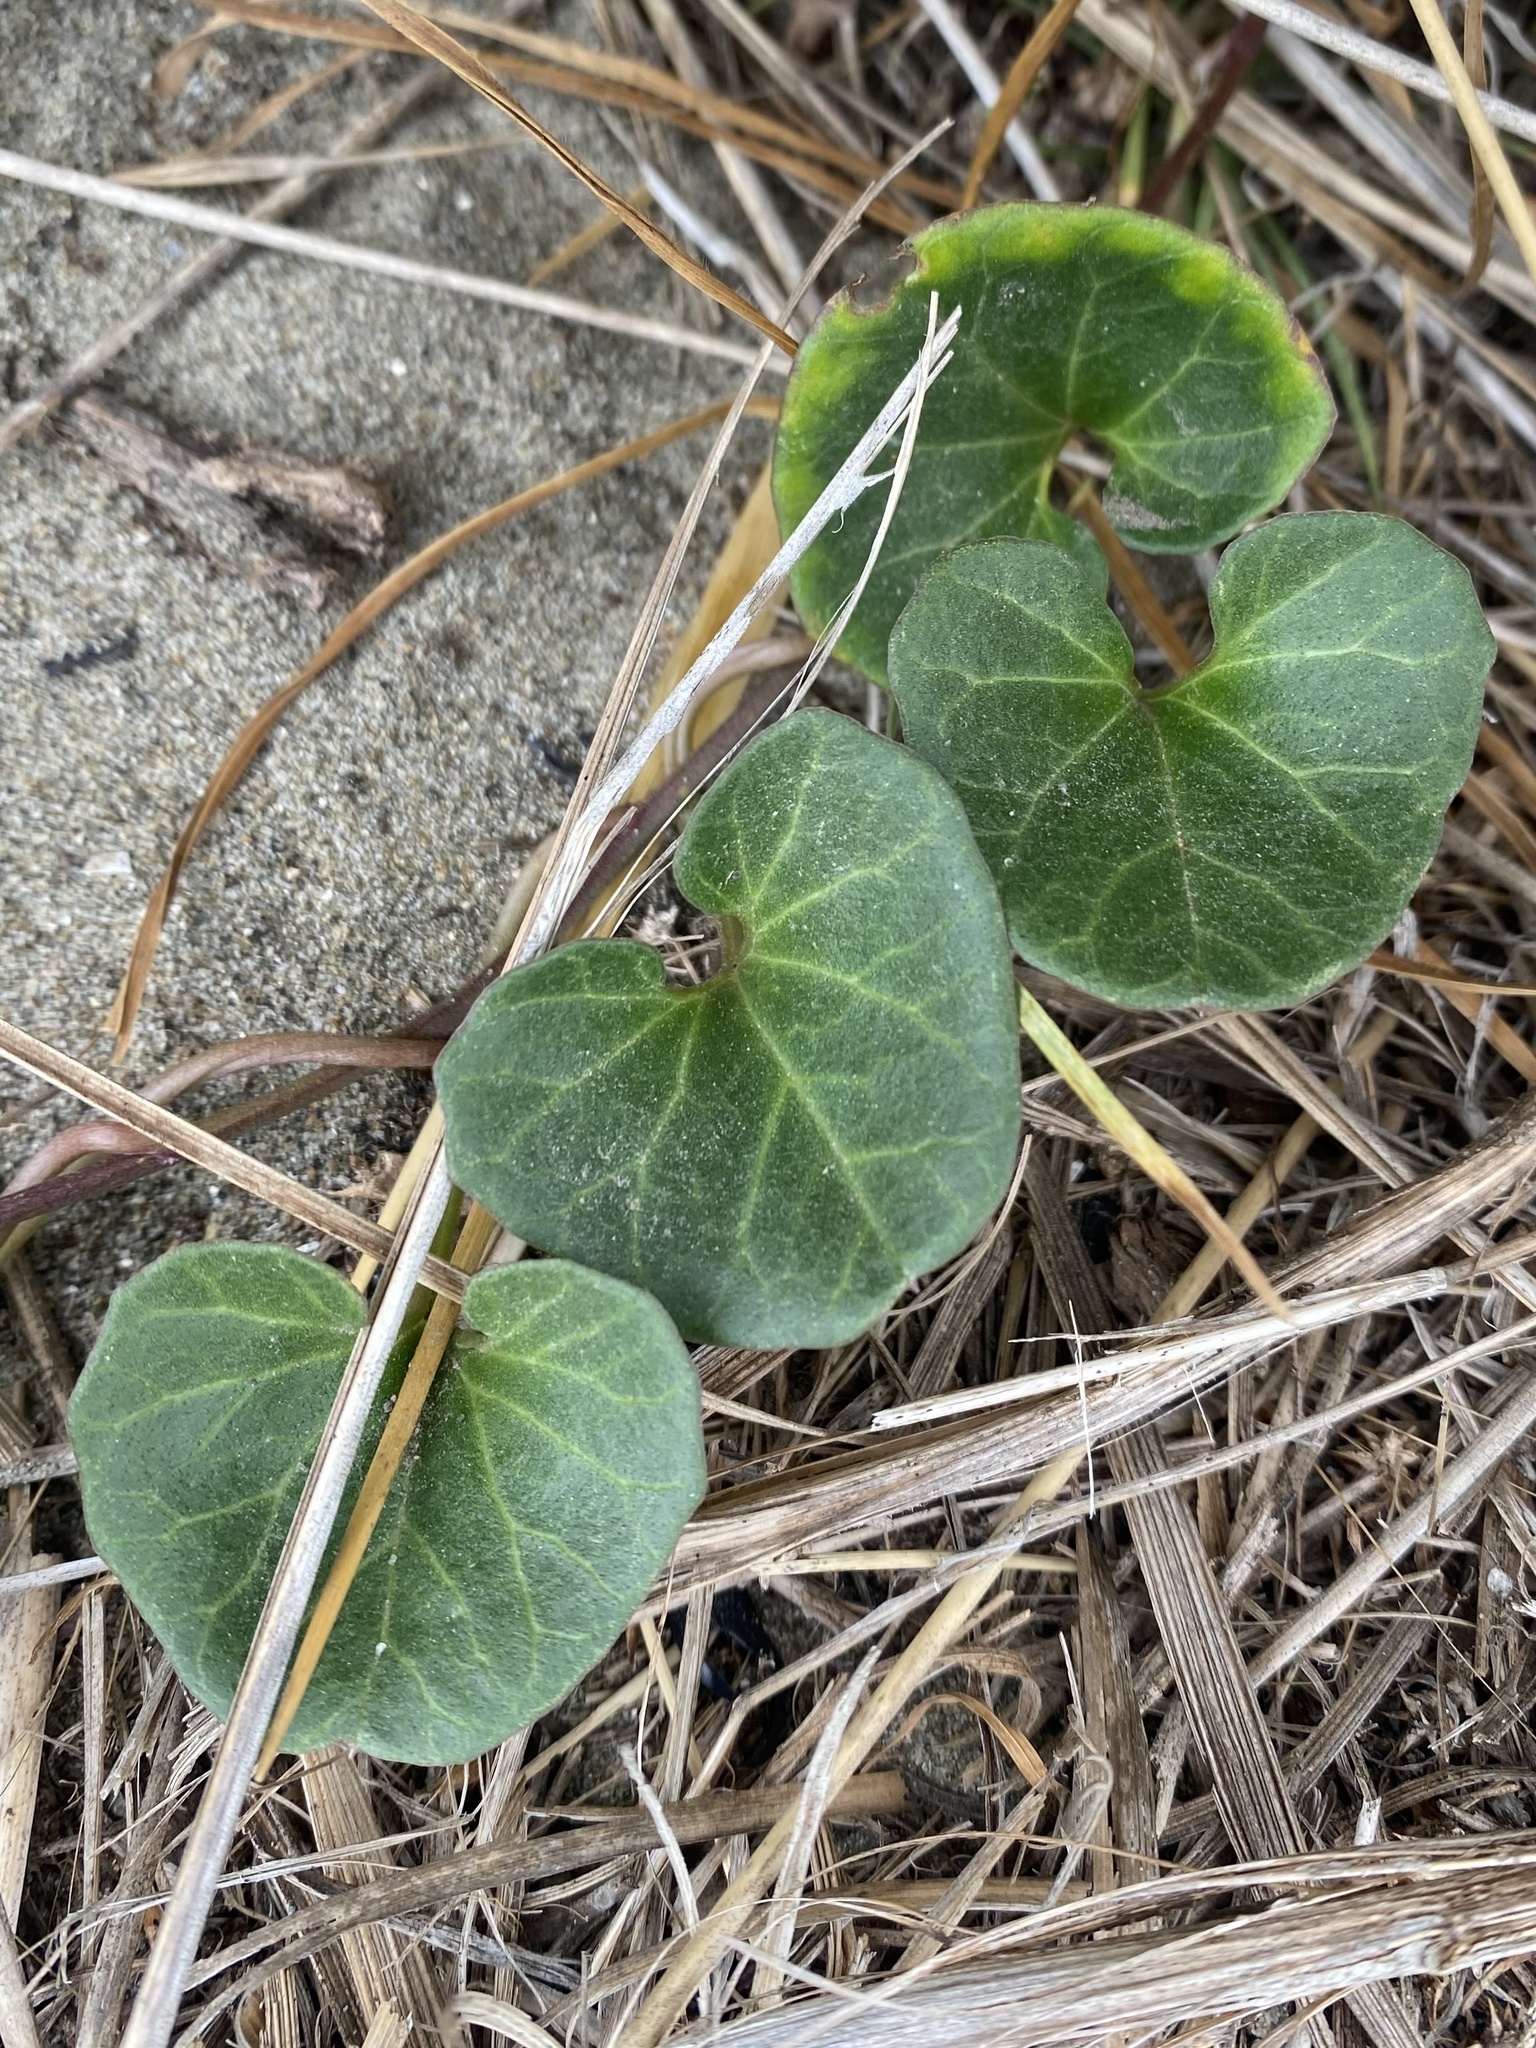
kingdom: Plantae
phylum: Tracheophyta
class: Magnoliopsida
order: Solanales
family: Convolvulaceae
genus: Calystegia
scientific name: Calystegia soldanella
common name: Sea bindweed
